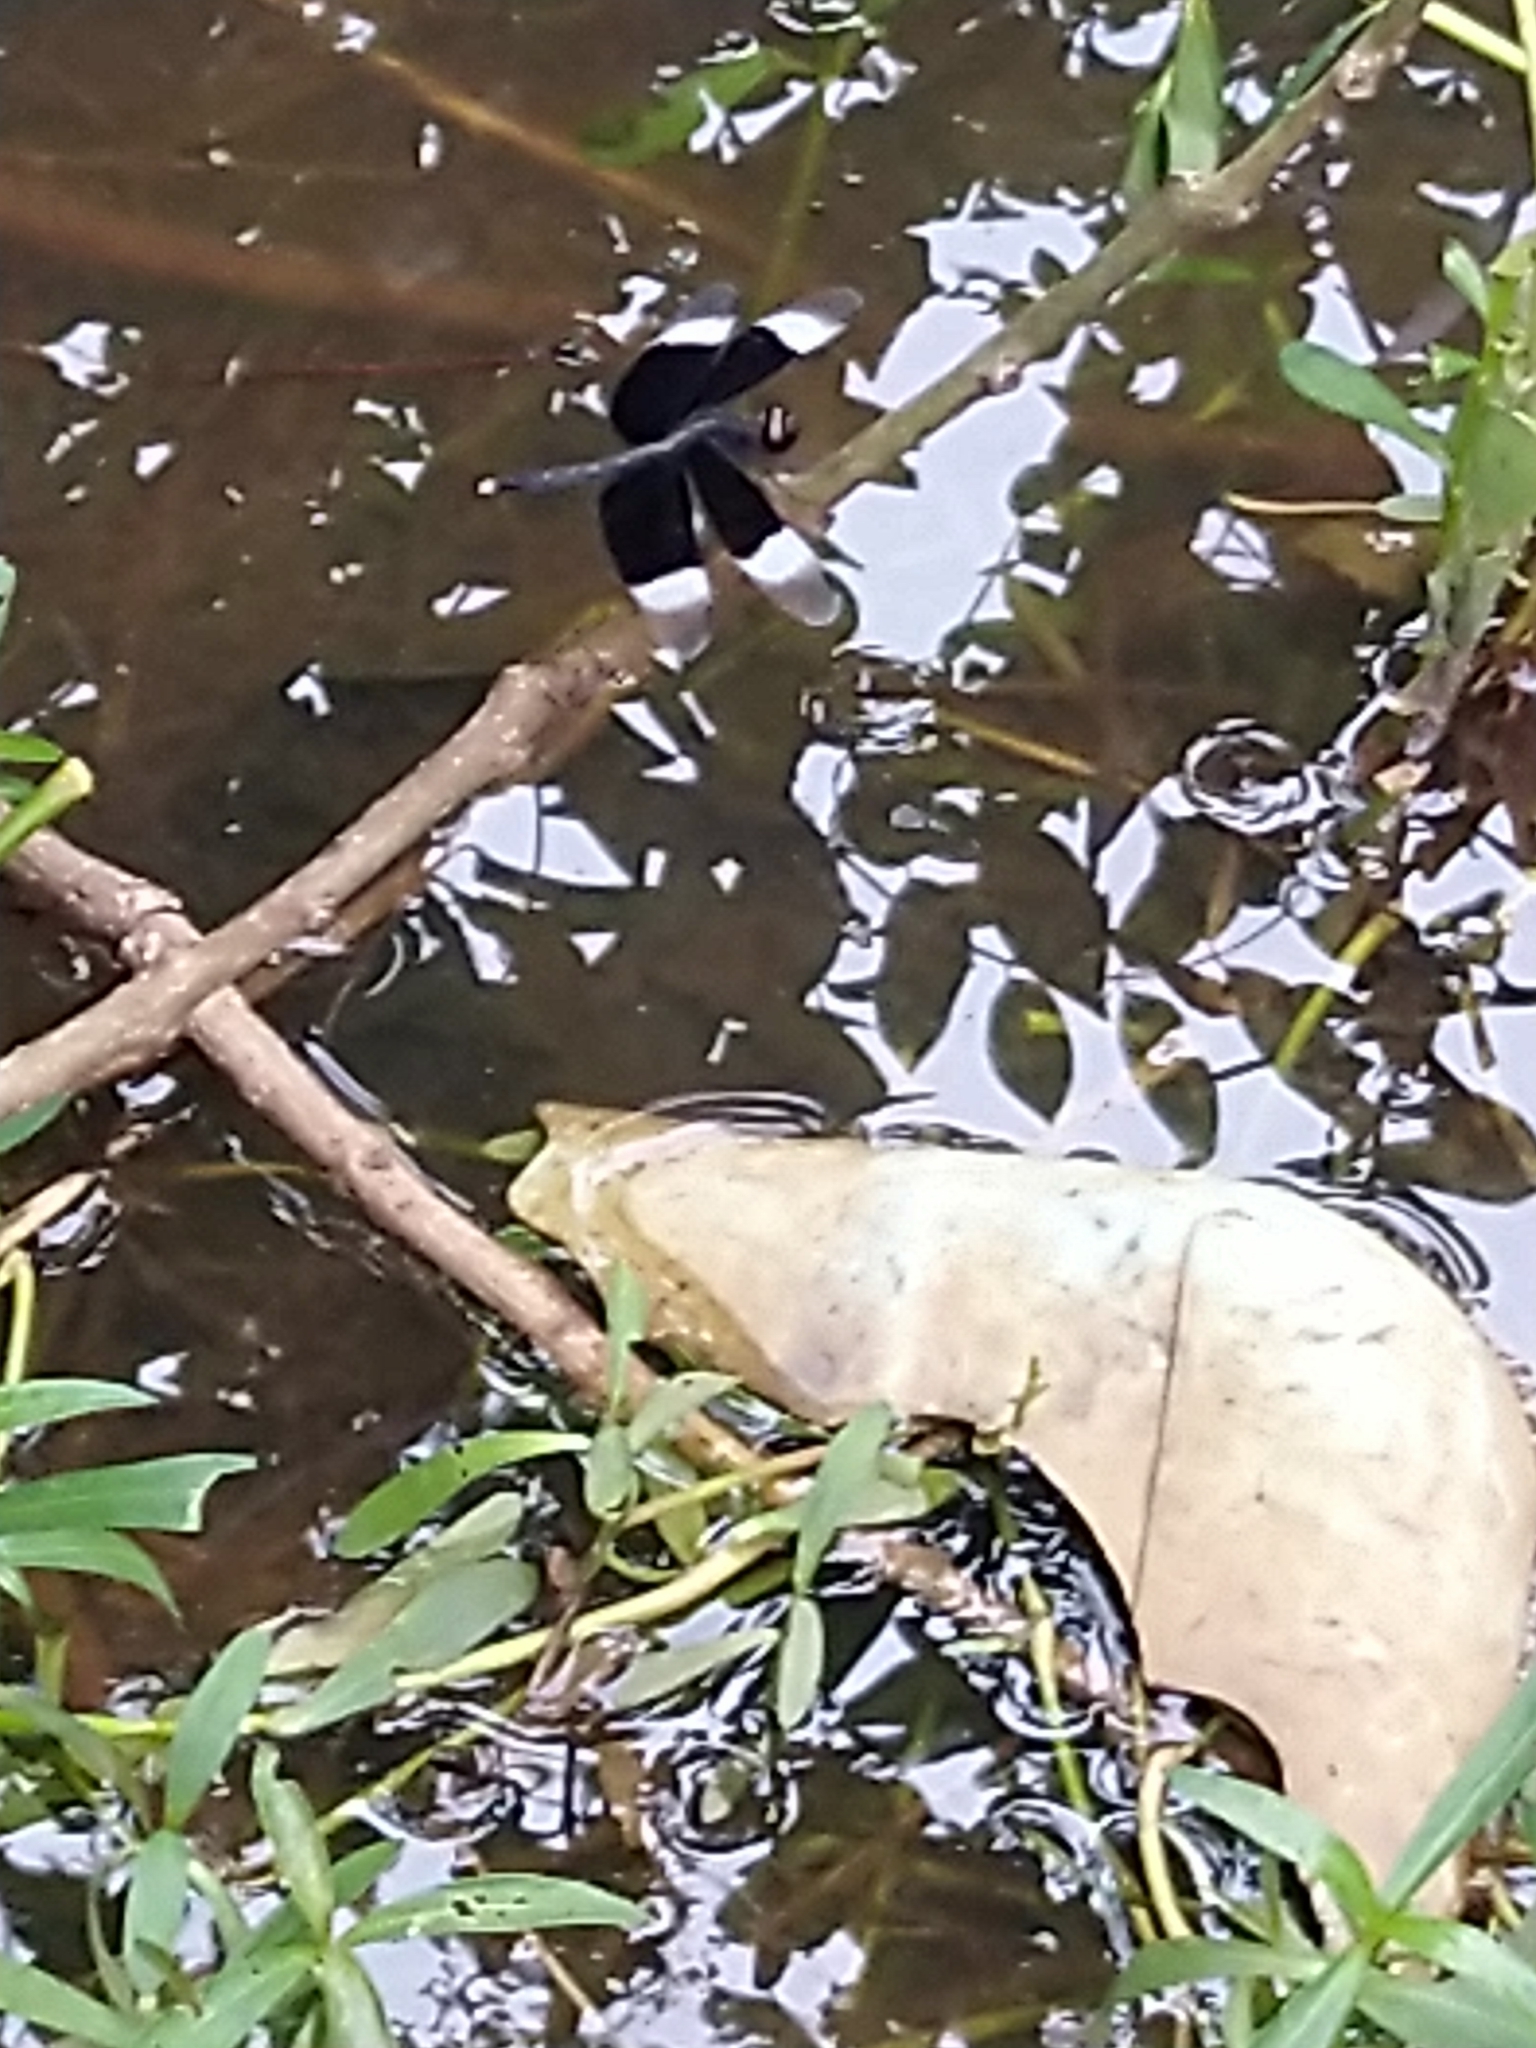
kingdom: Animalia
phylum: Arthropoda
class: Insecta
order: Odonata
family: Libellulidae
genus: Neurothemis
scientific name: Neurothemis tullia
